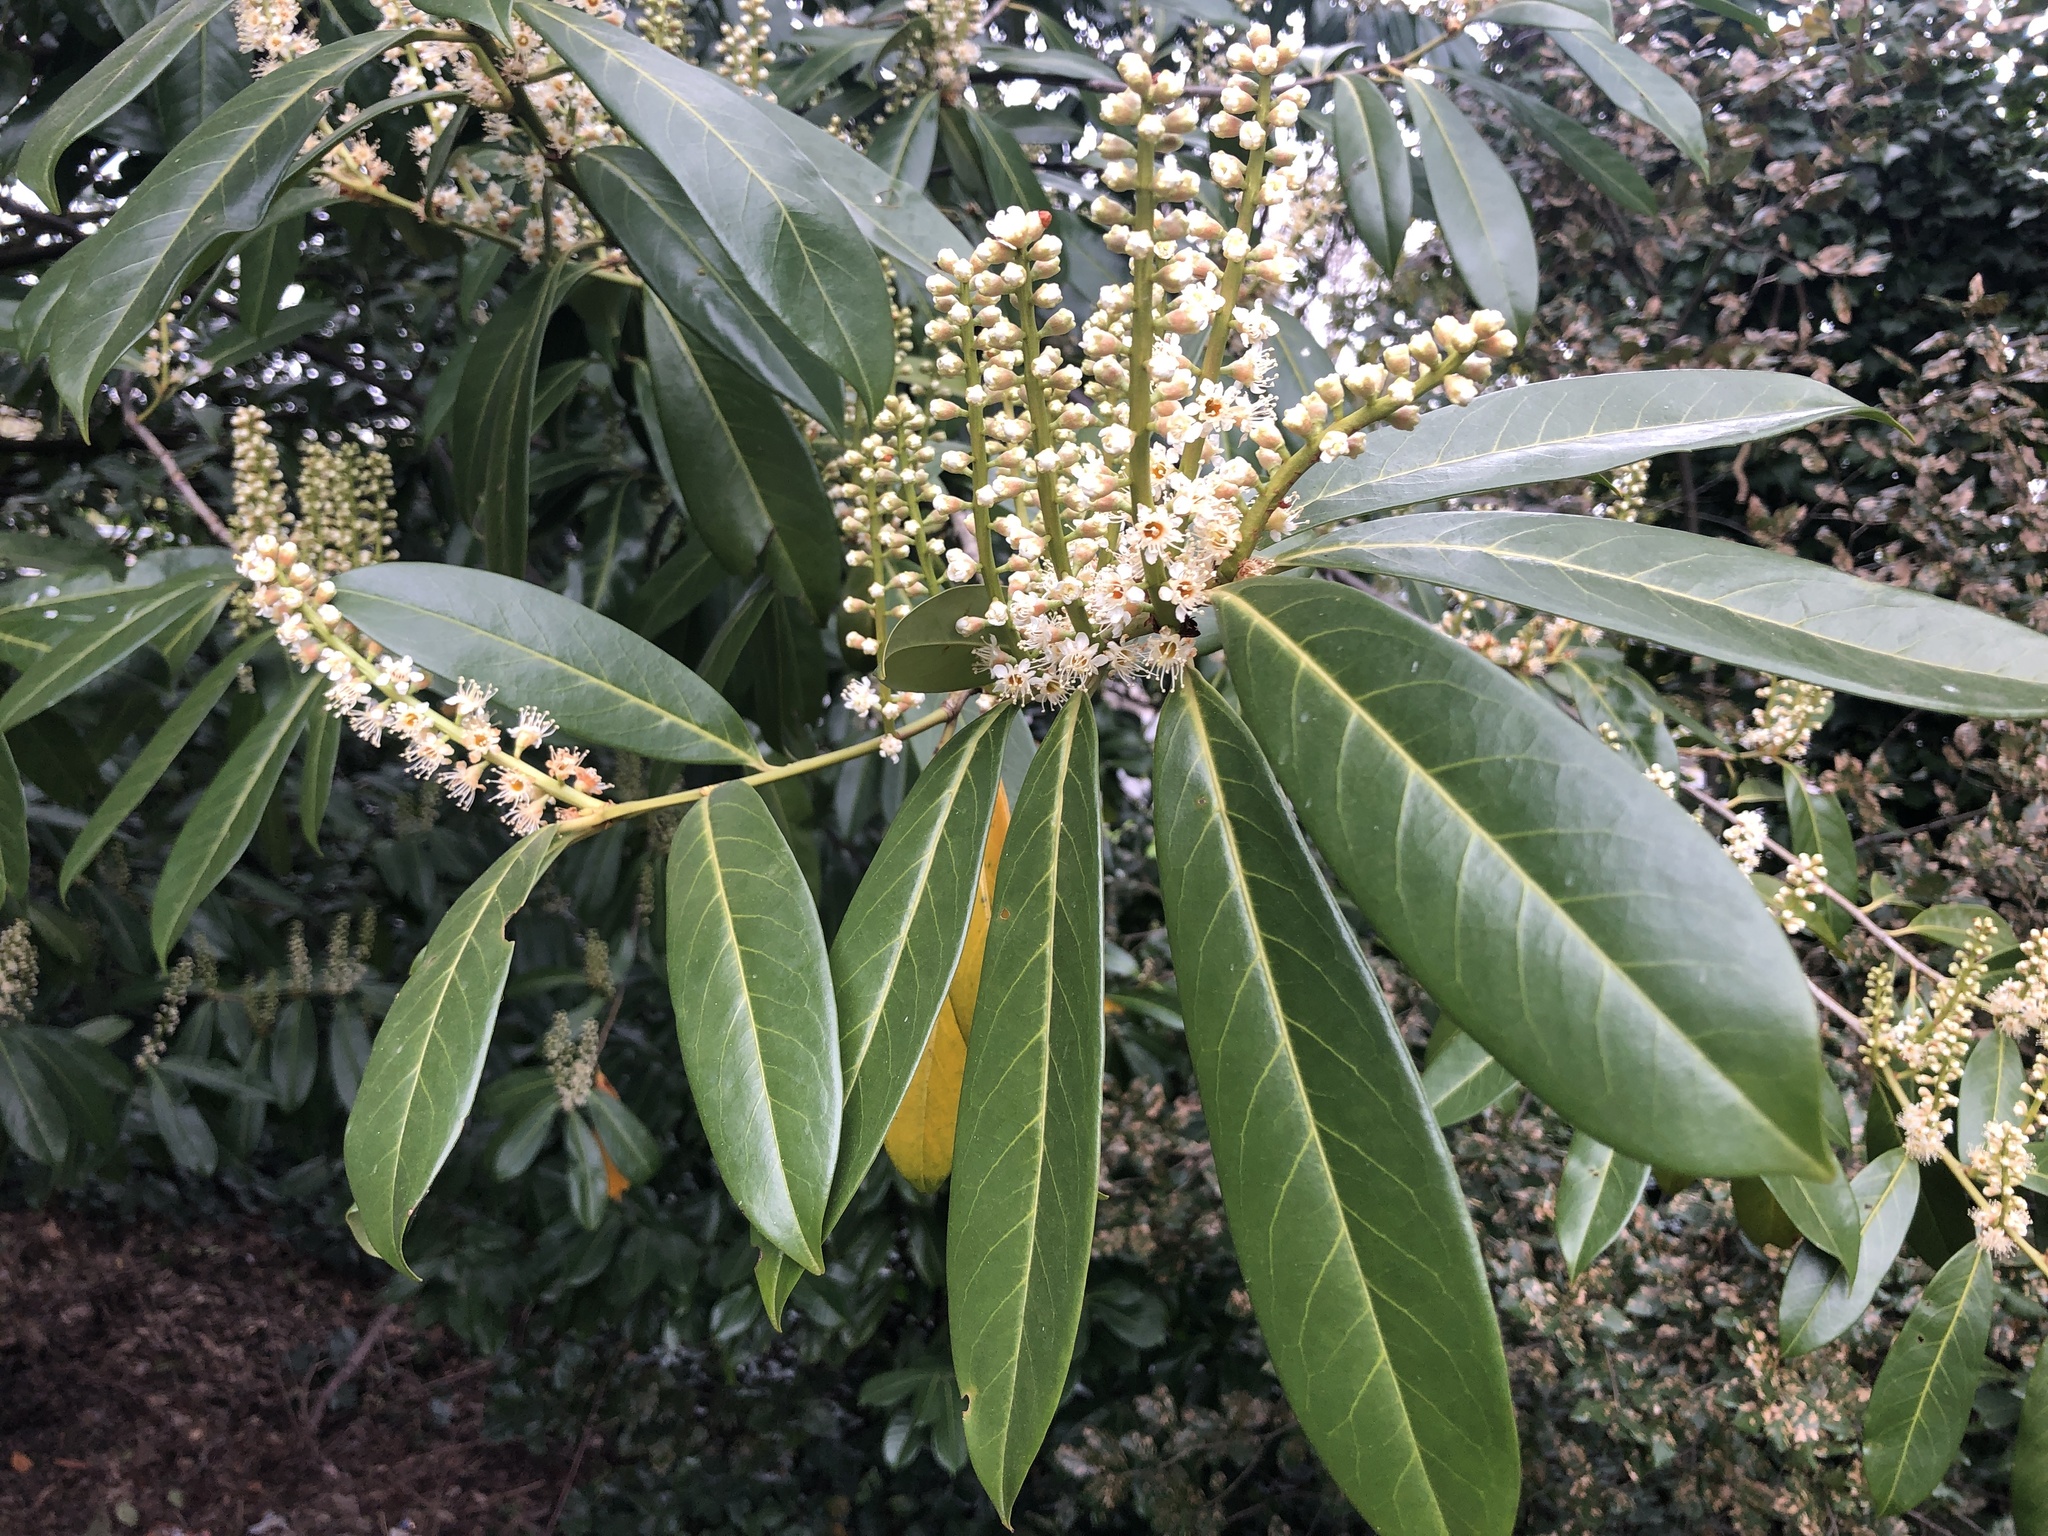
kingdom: Plantae
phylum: Tracheophyta
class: Magnoliopsida
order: Rosales
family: Rosaceae
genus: Prunus
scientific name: Prunus laurocerasus
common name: Cherry laurel
